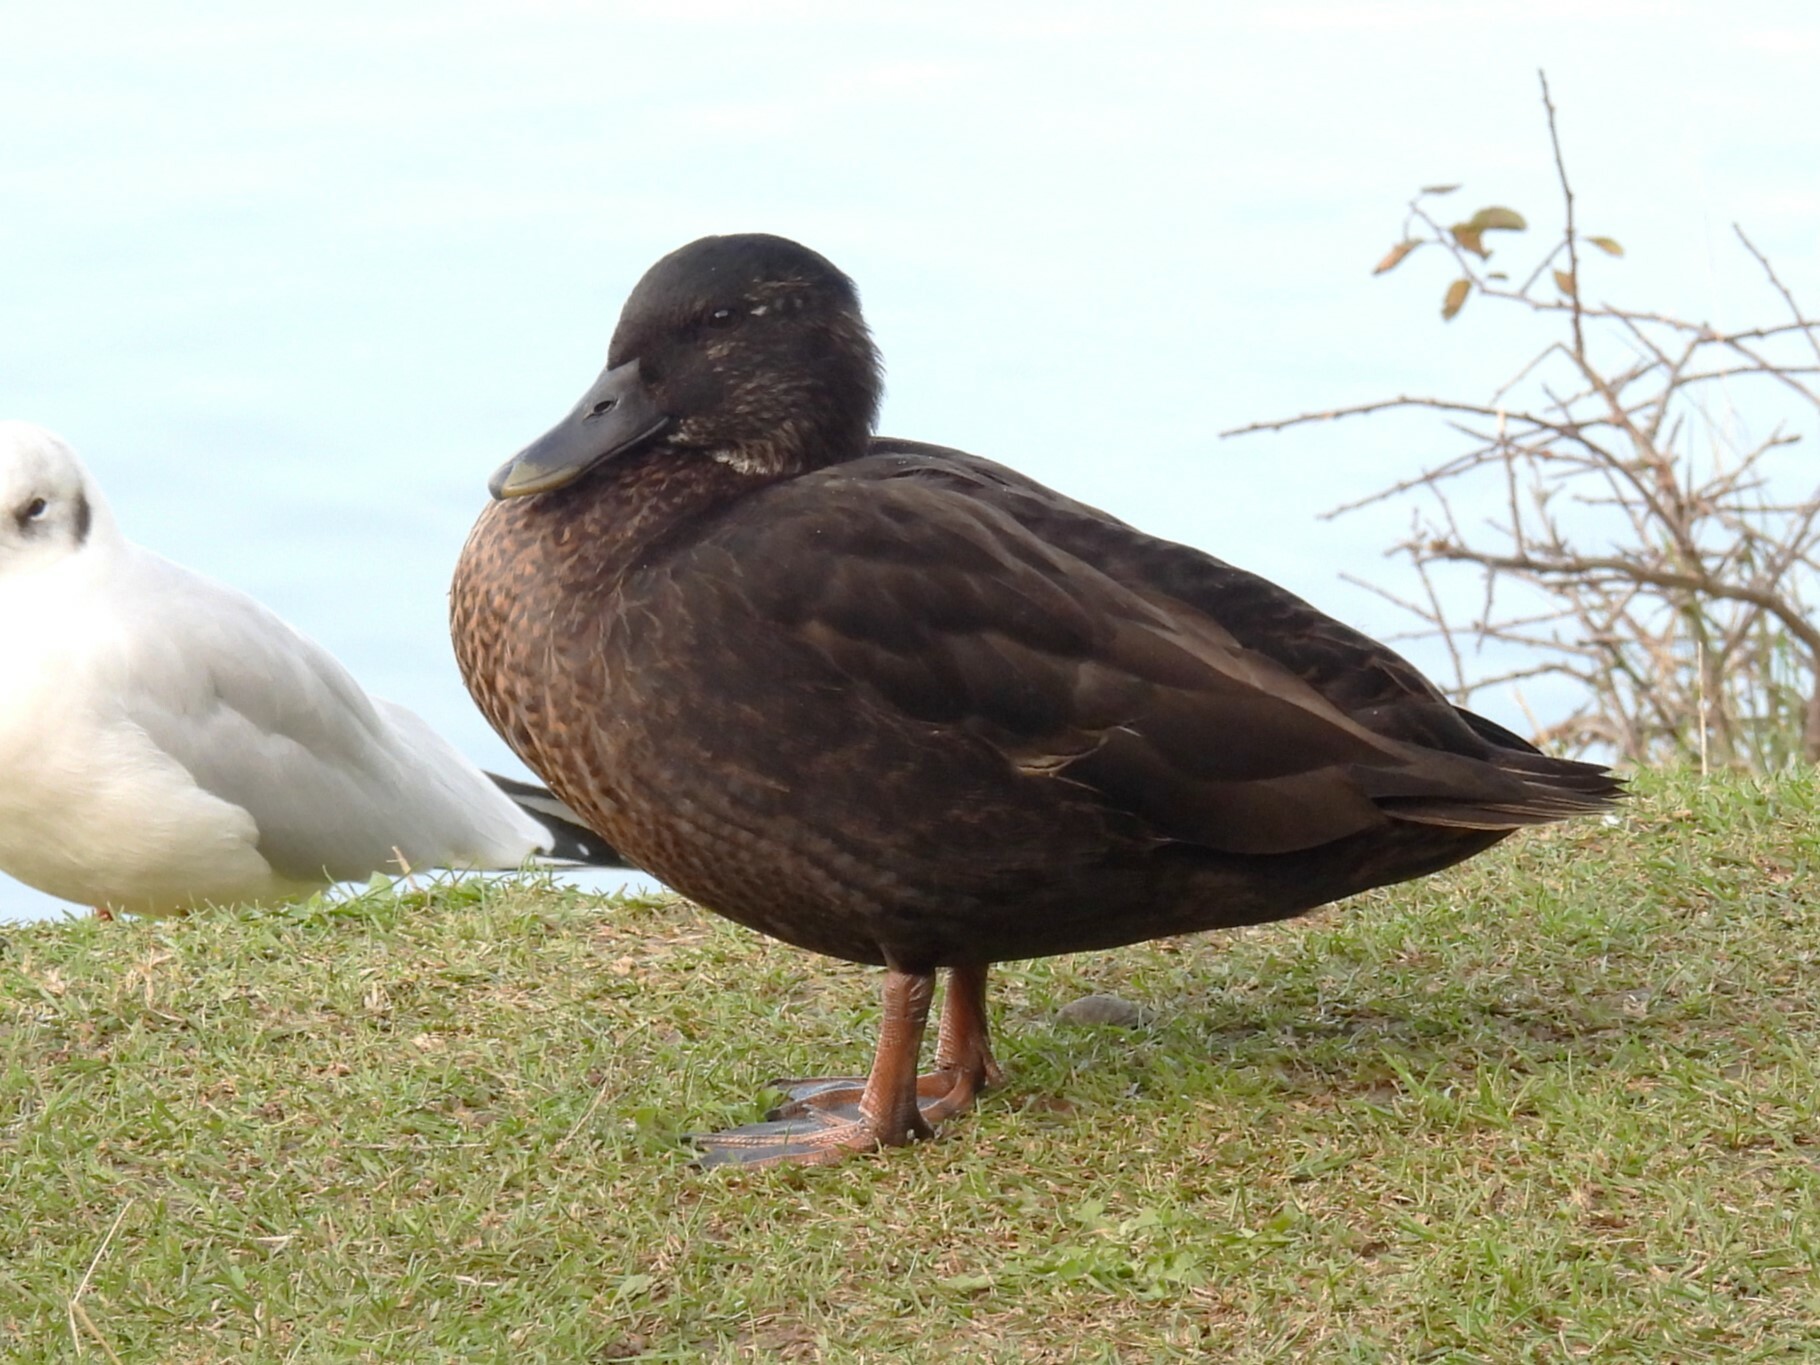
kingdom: Animalia
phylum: Chordata
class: Aves
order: Anseriformes
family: Anatidae
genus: Anas
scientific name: Anas platyrhynchos
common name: Mallard
